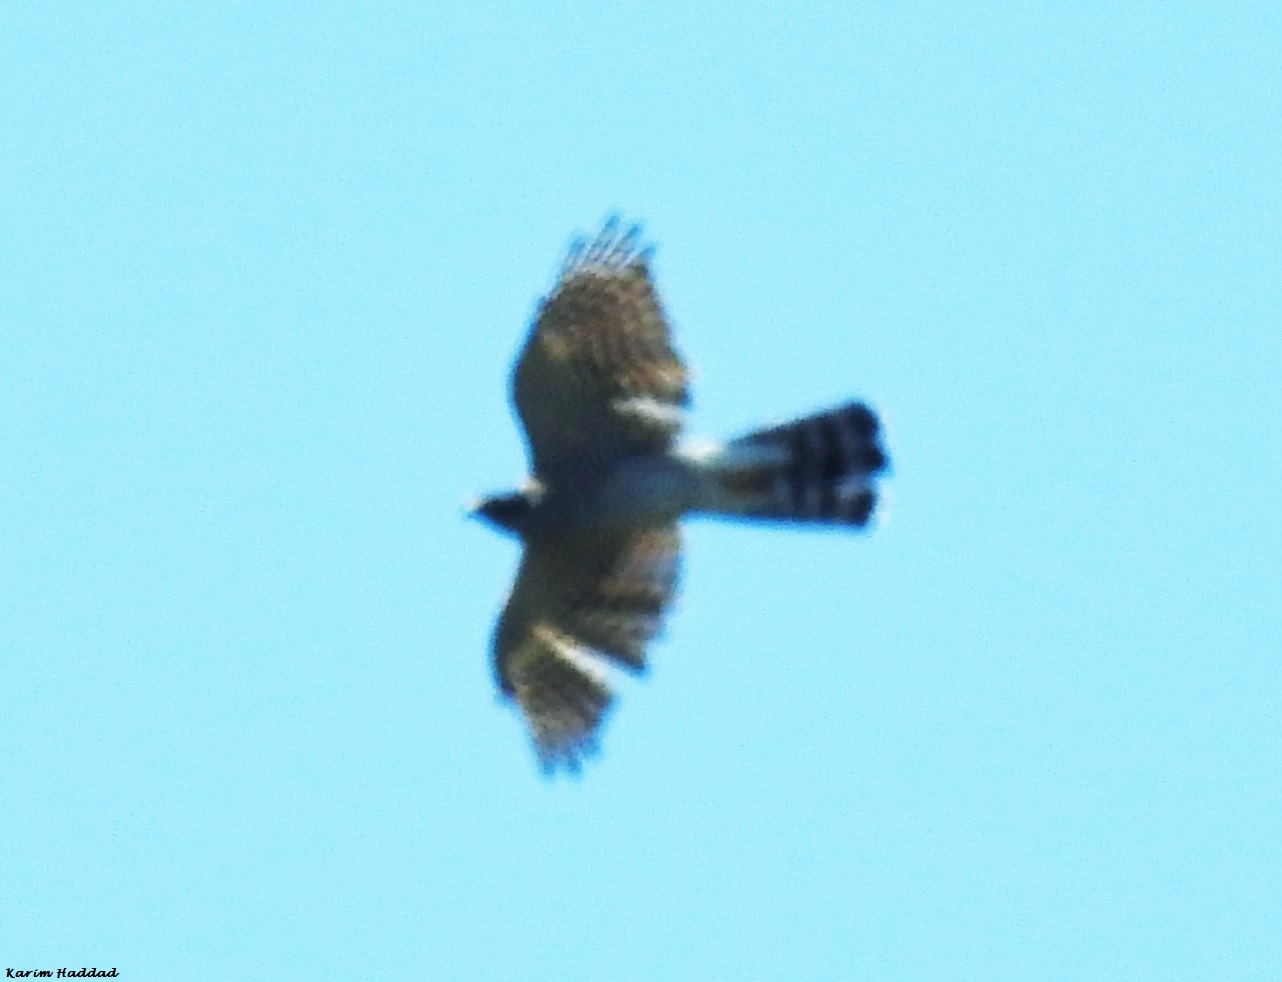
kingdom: Animalia
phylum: Chordata
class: Aves
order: Accipitriformes
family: Accipitridae
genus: Accipiter
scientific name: Accipiter nisus
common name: Eurasian sparrowhawk
